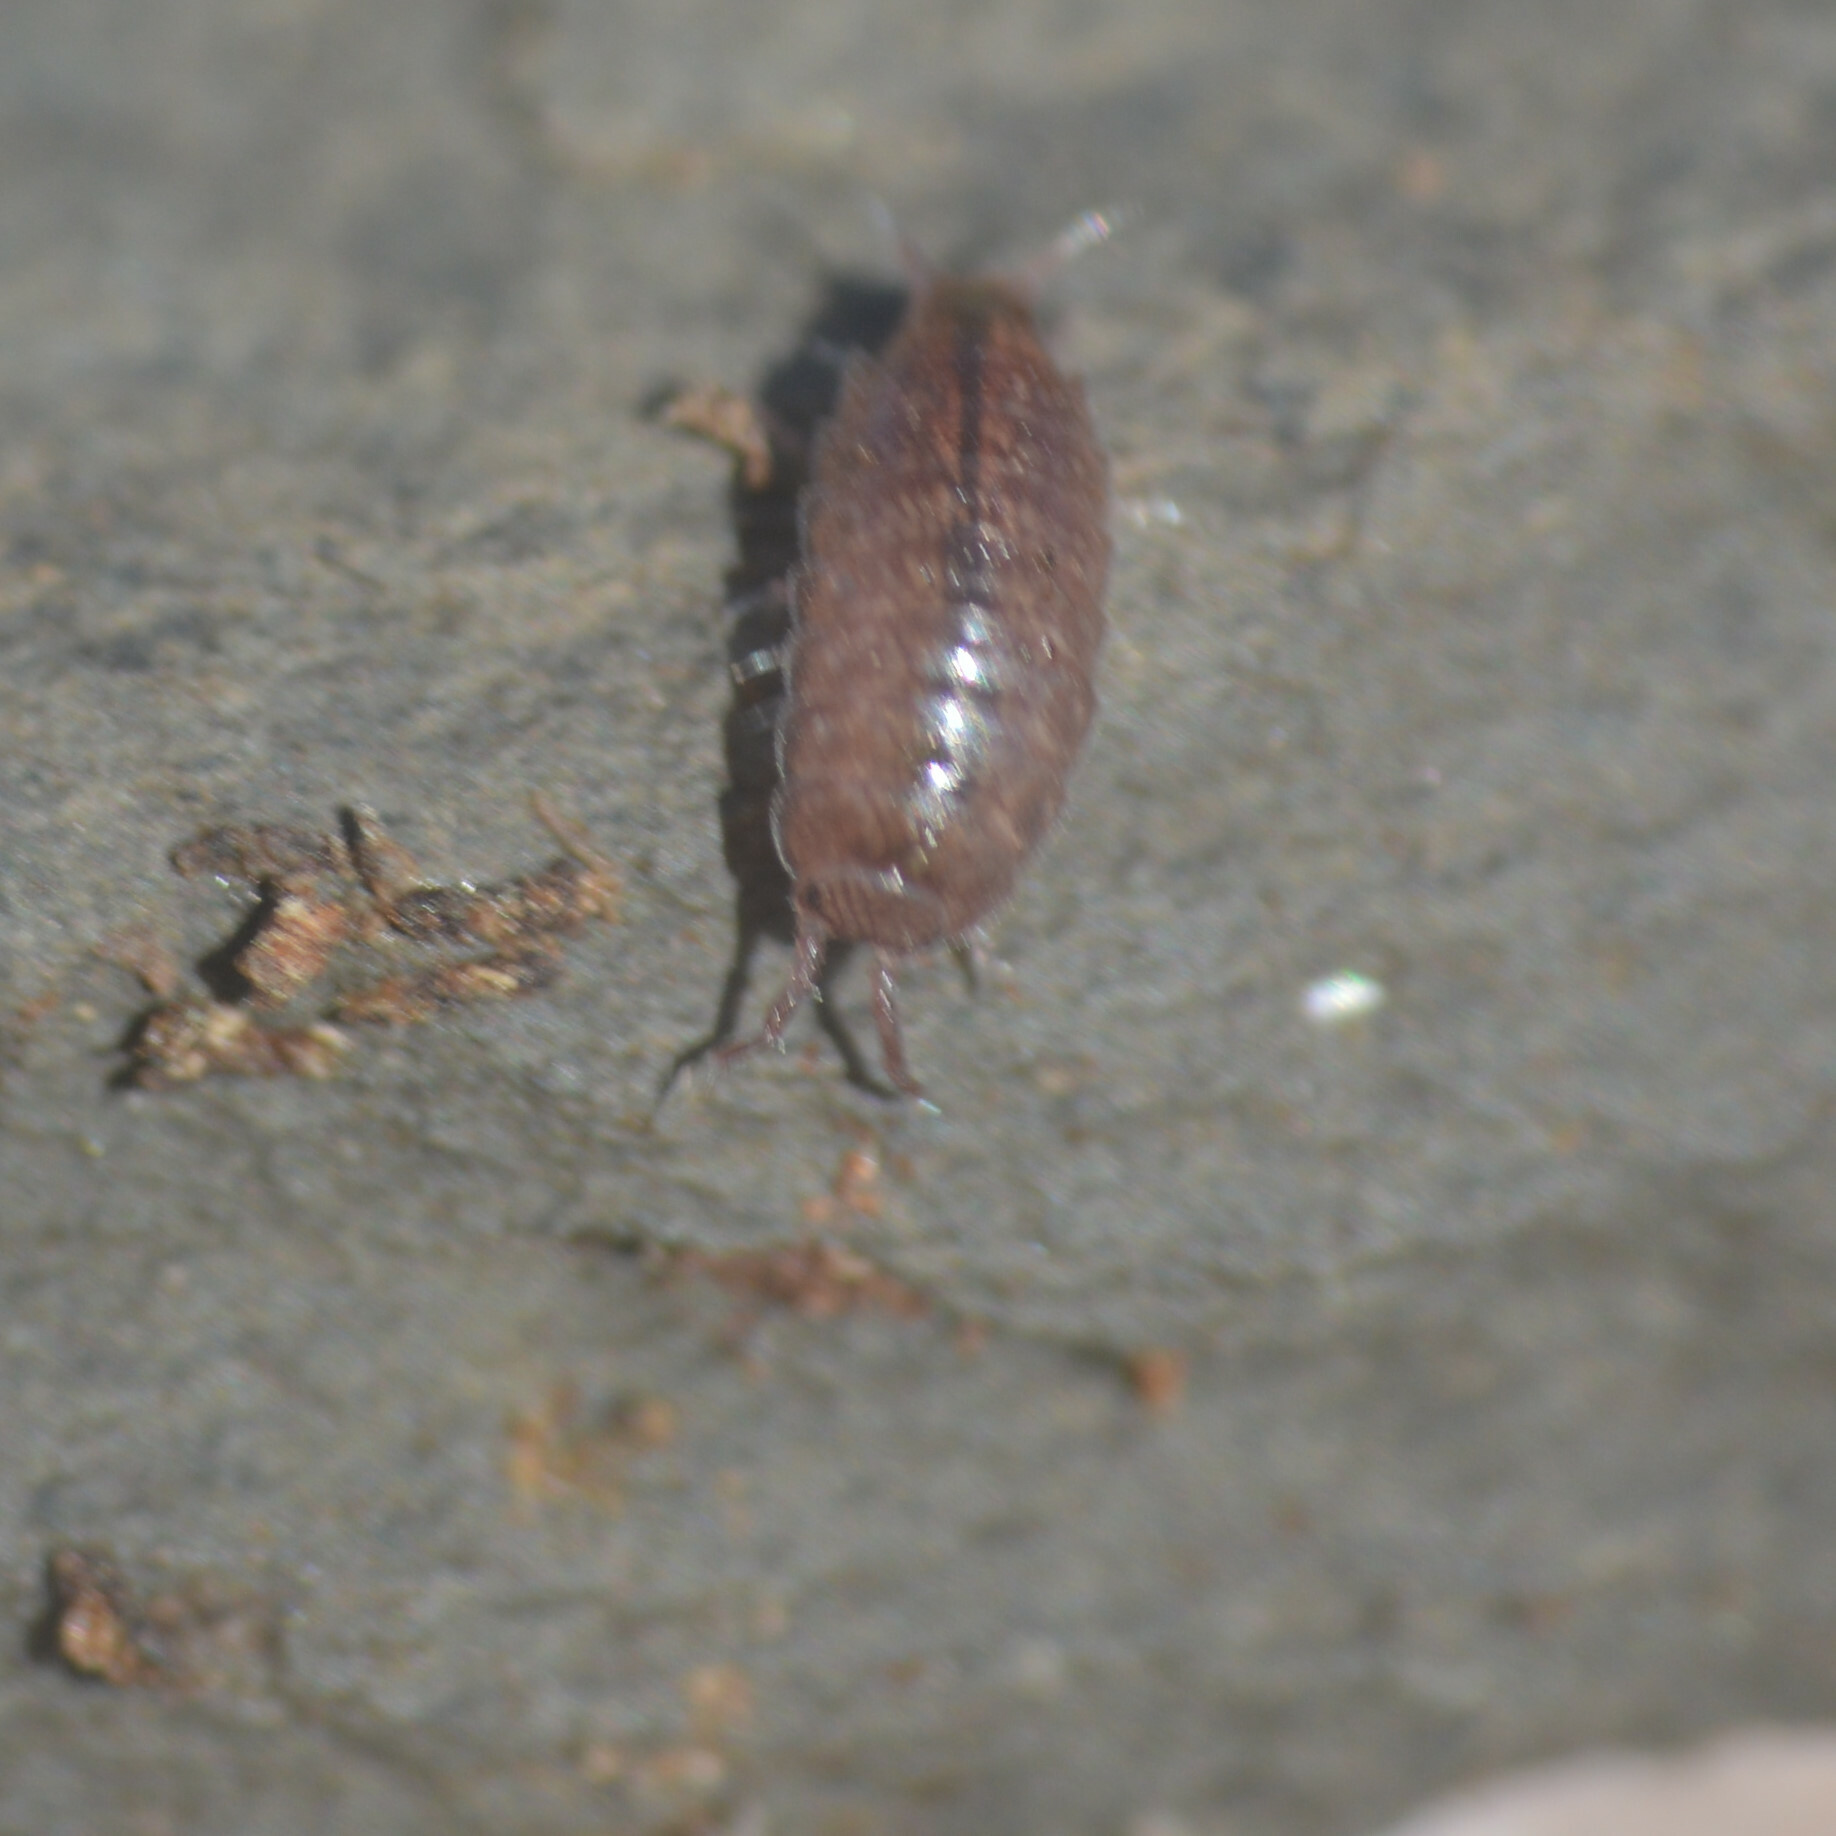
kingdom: Animalia
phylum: Arthropoda
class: Malacostraca
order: Isopoda
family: Trichoniscidae
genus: Trichoniscus
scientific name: Trichoniscus
